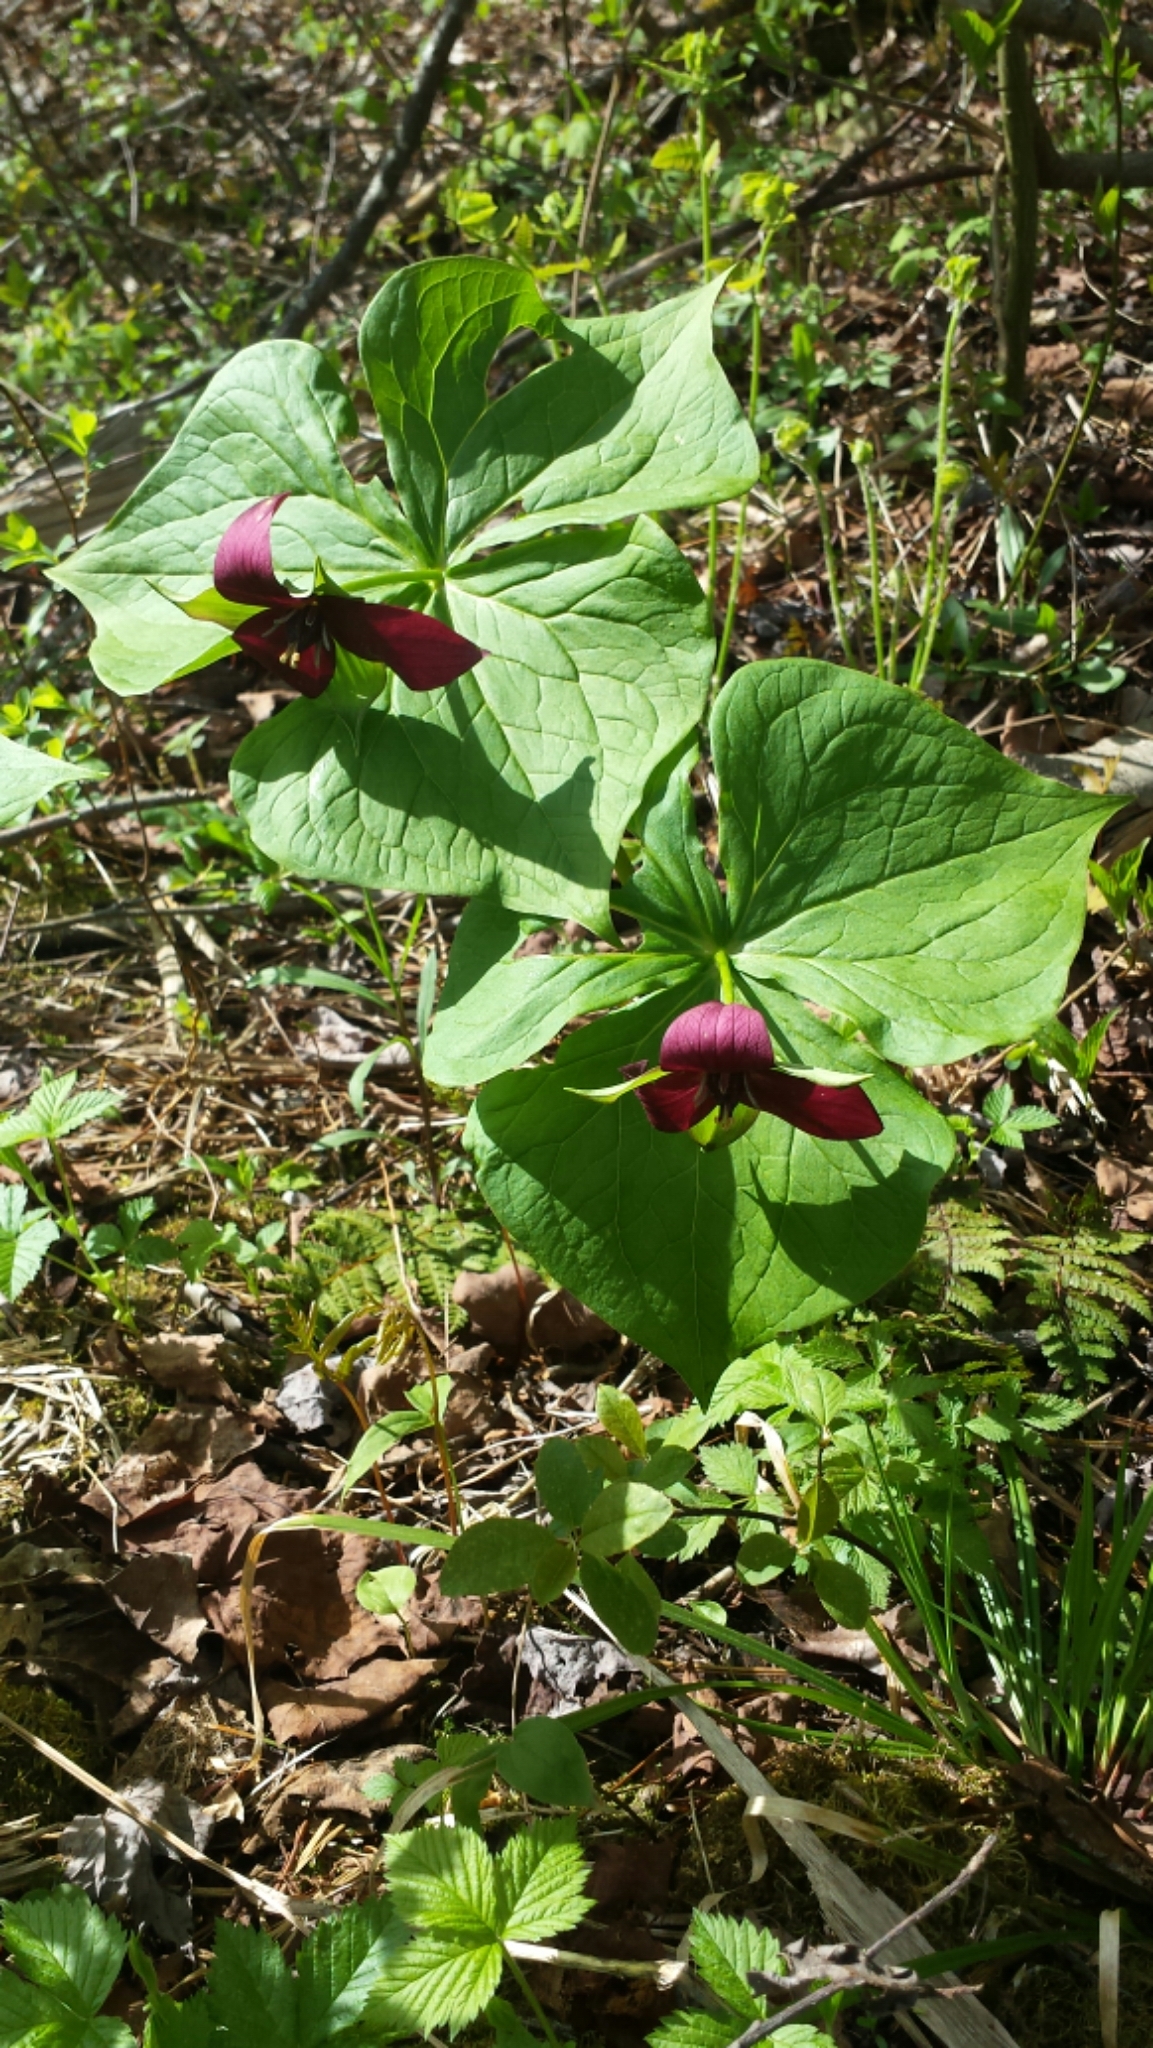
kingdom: Plantae
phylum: Tracheophyta
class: Liliopsida
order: Liliales
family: Melanthiaceae
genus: Trillium
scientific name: Trillium erectum
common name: Purple trillium
